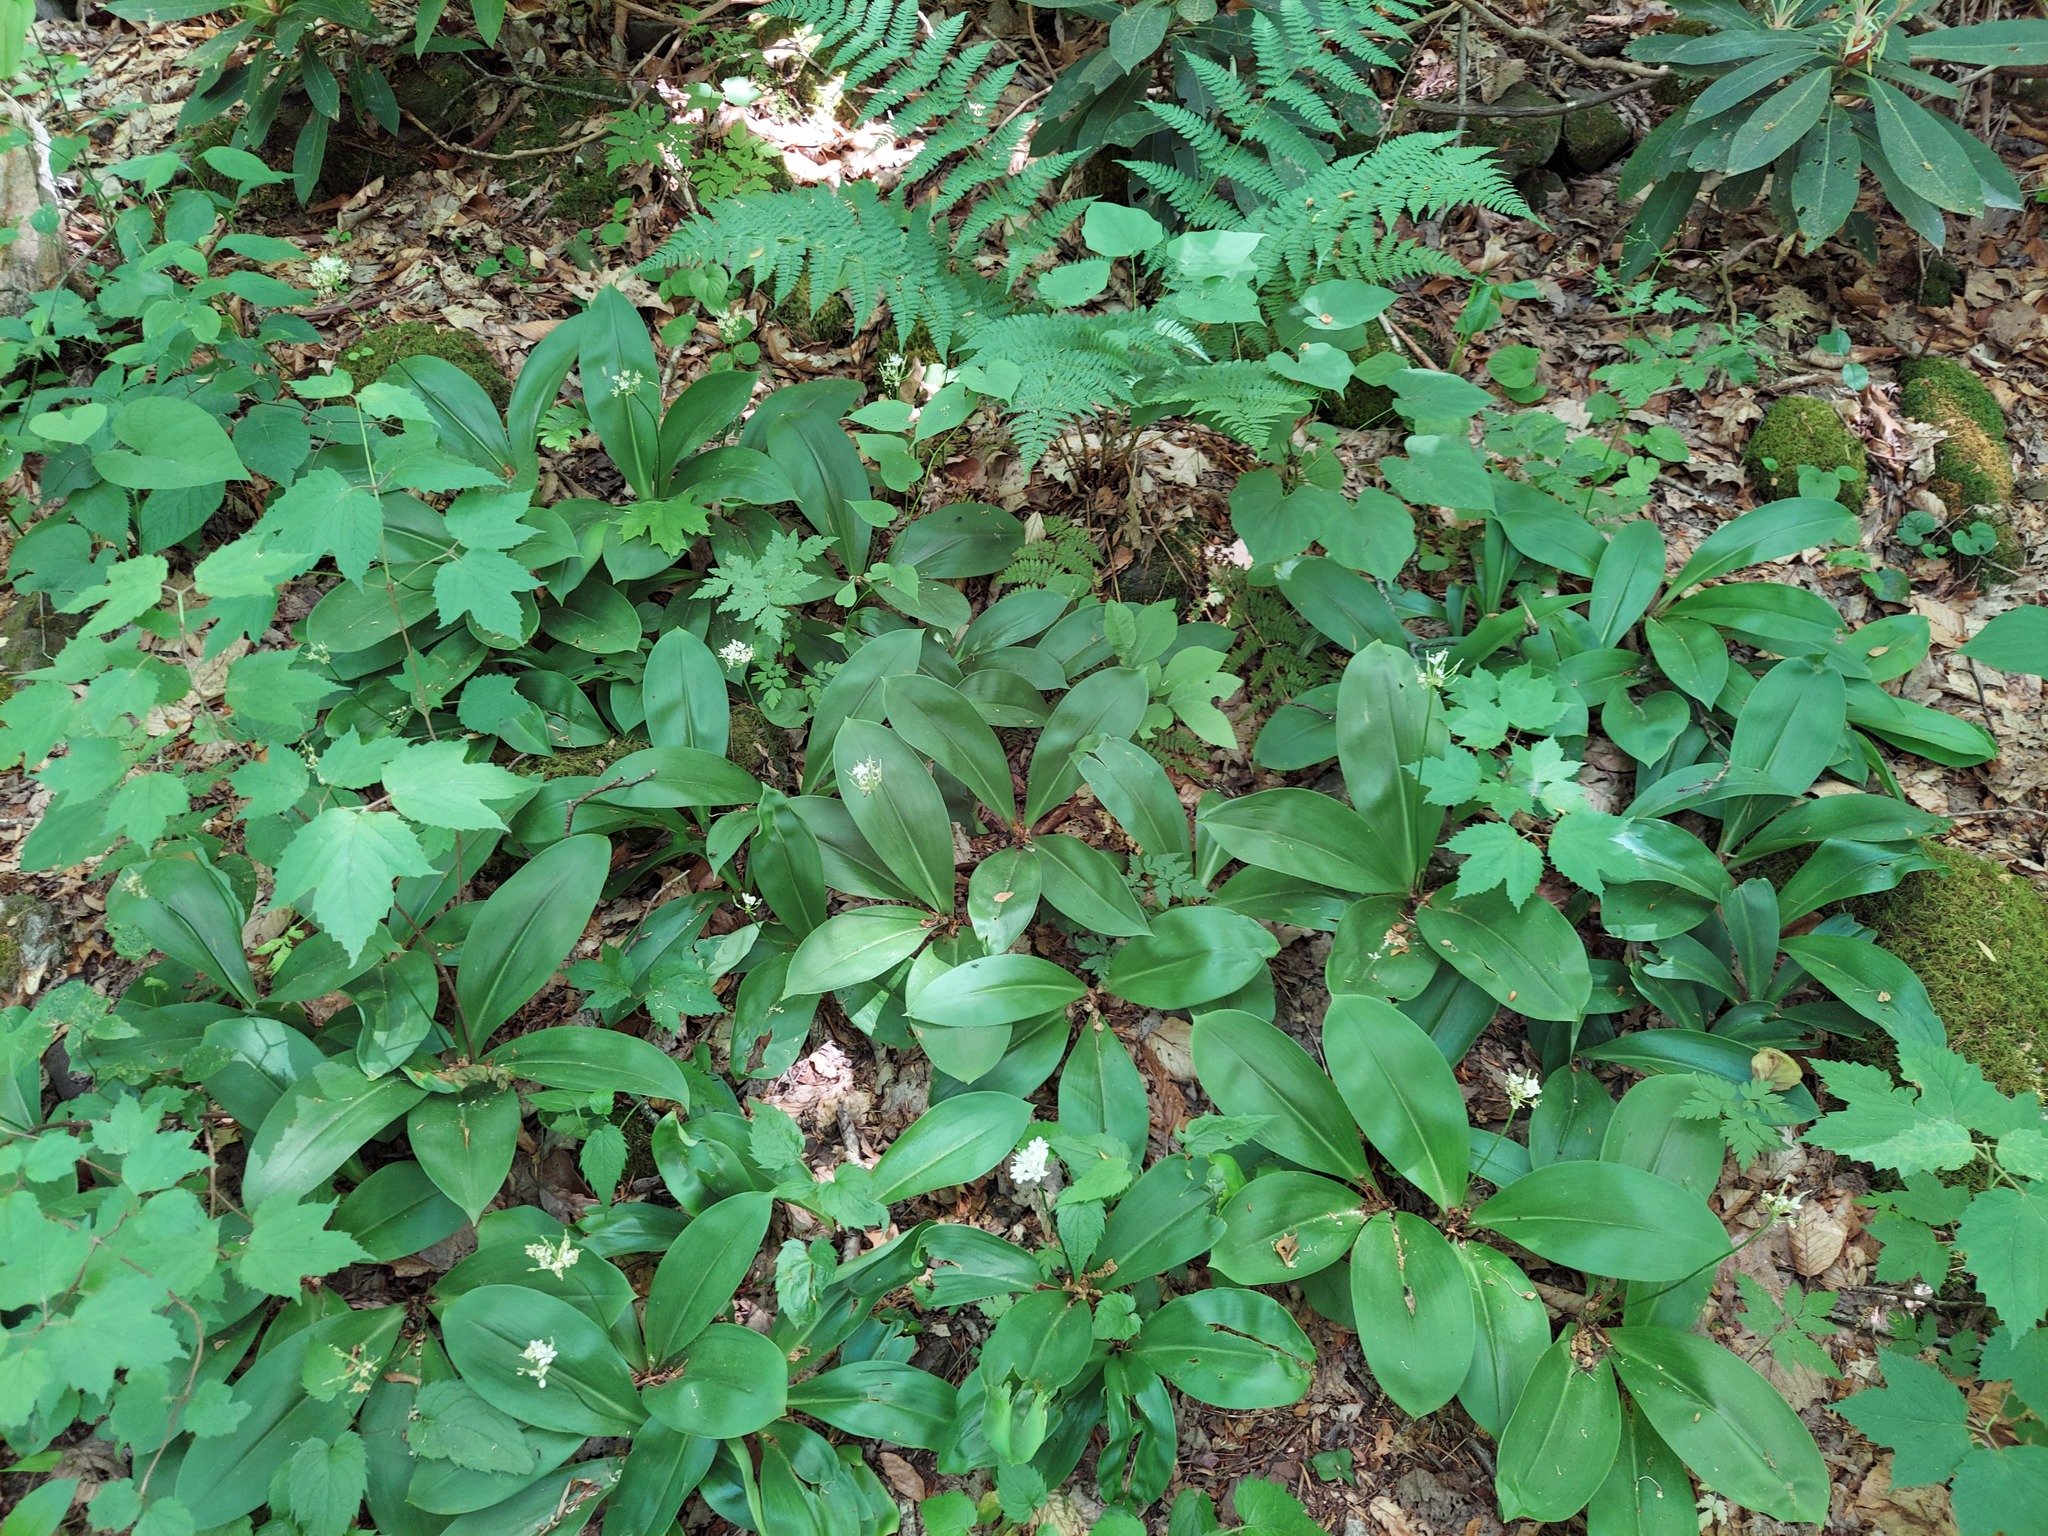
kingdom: Plantae
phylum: Tracheophyta
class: Liliopsida
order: Liliales
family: Liliaceae
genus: Clintonia
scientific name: Clintonia umbellulata
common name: Speckle wood-lily
